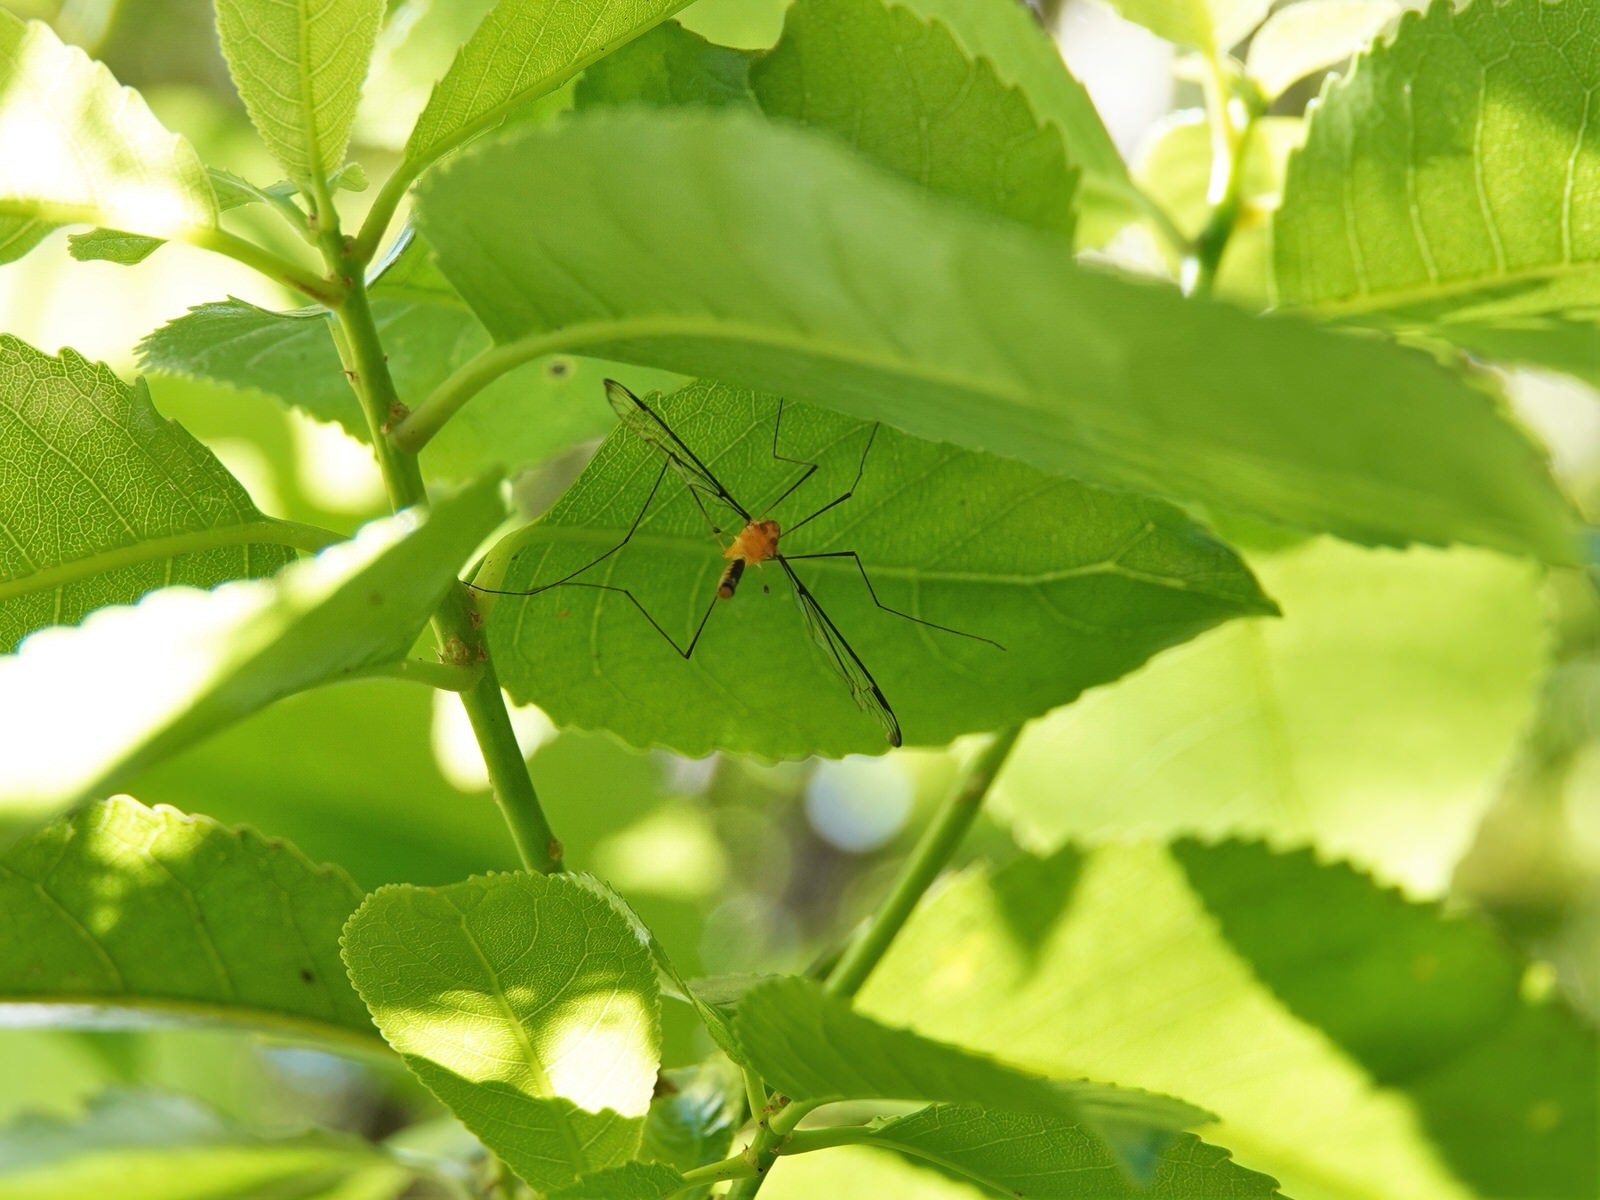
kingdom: Animalia
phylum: Arthropoda
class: Insecta
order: Diptera
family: Tipulidae
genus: Aurotipula
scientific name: Aurotipula
